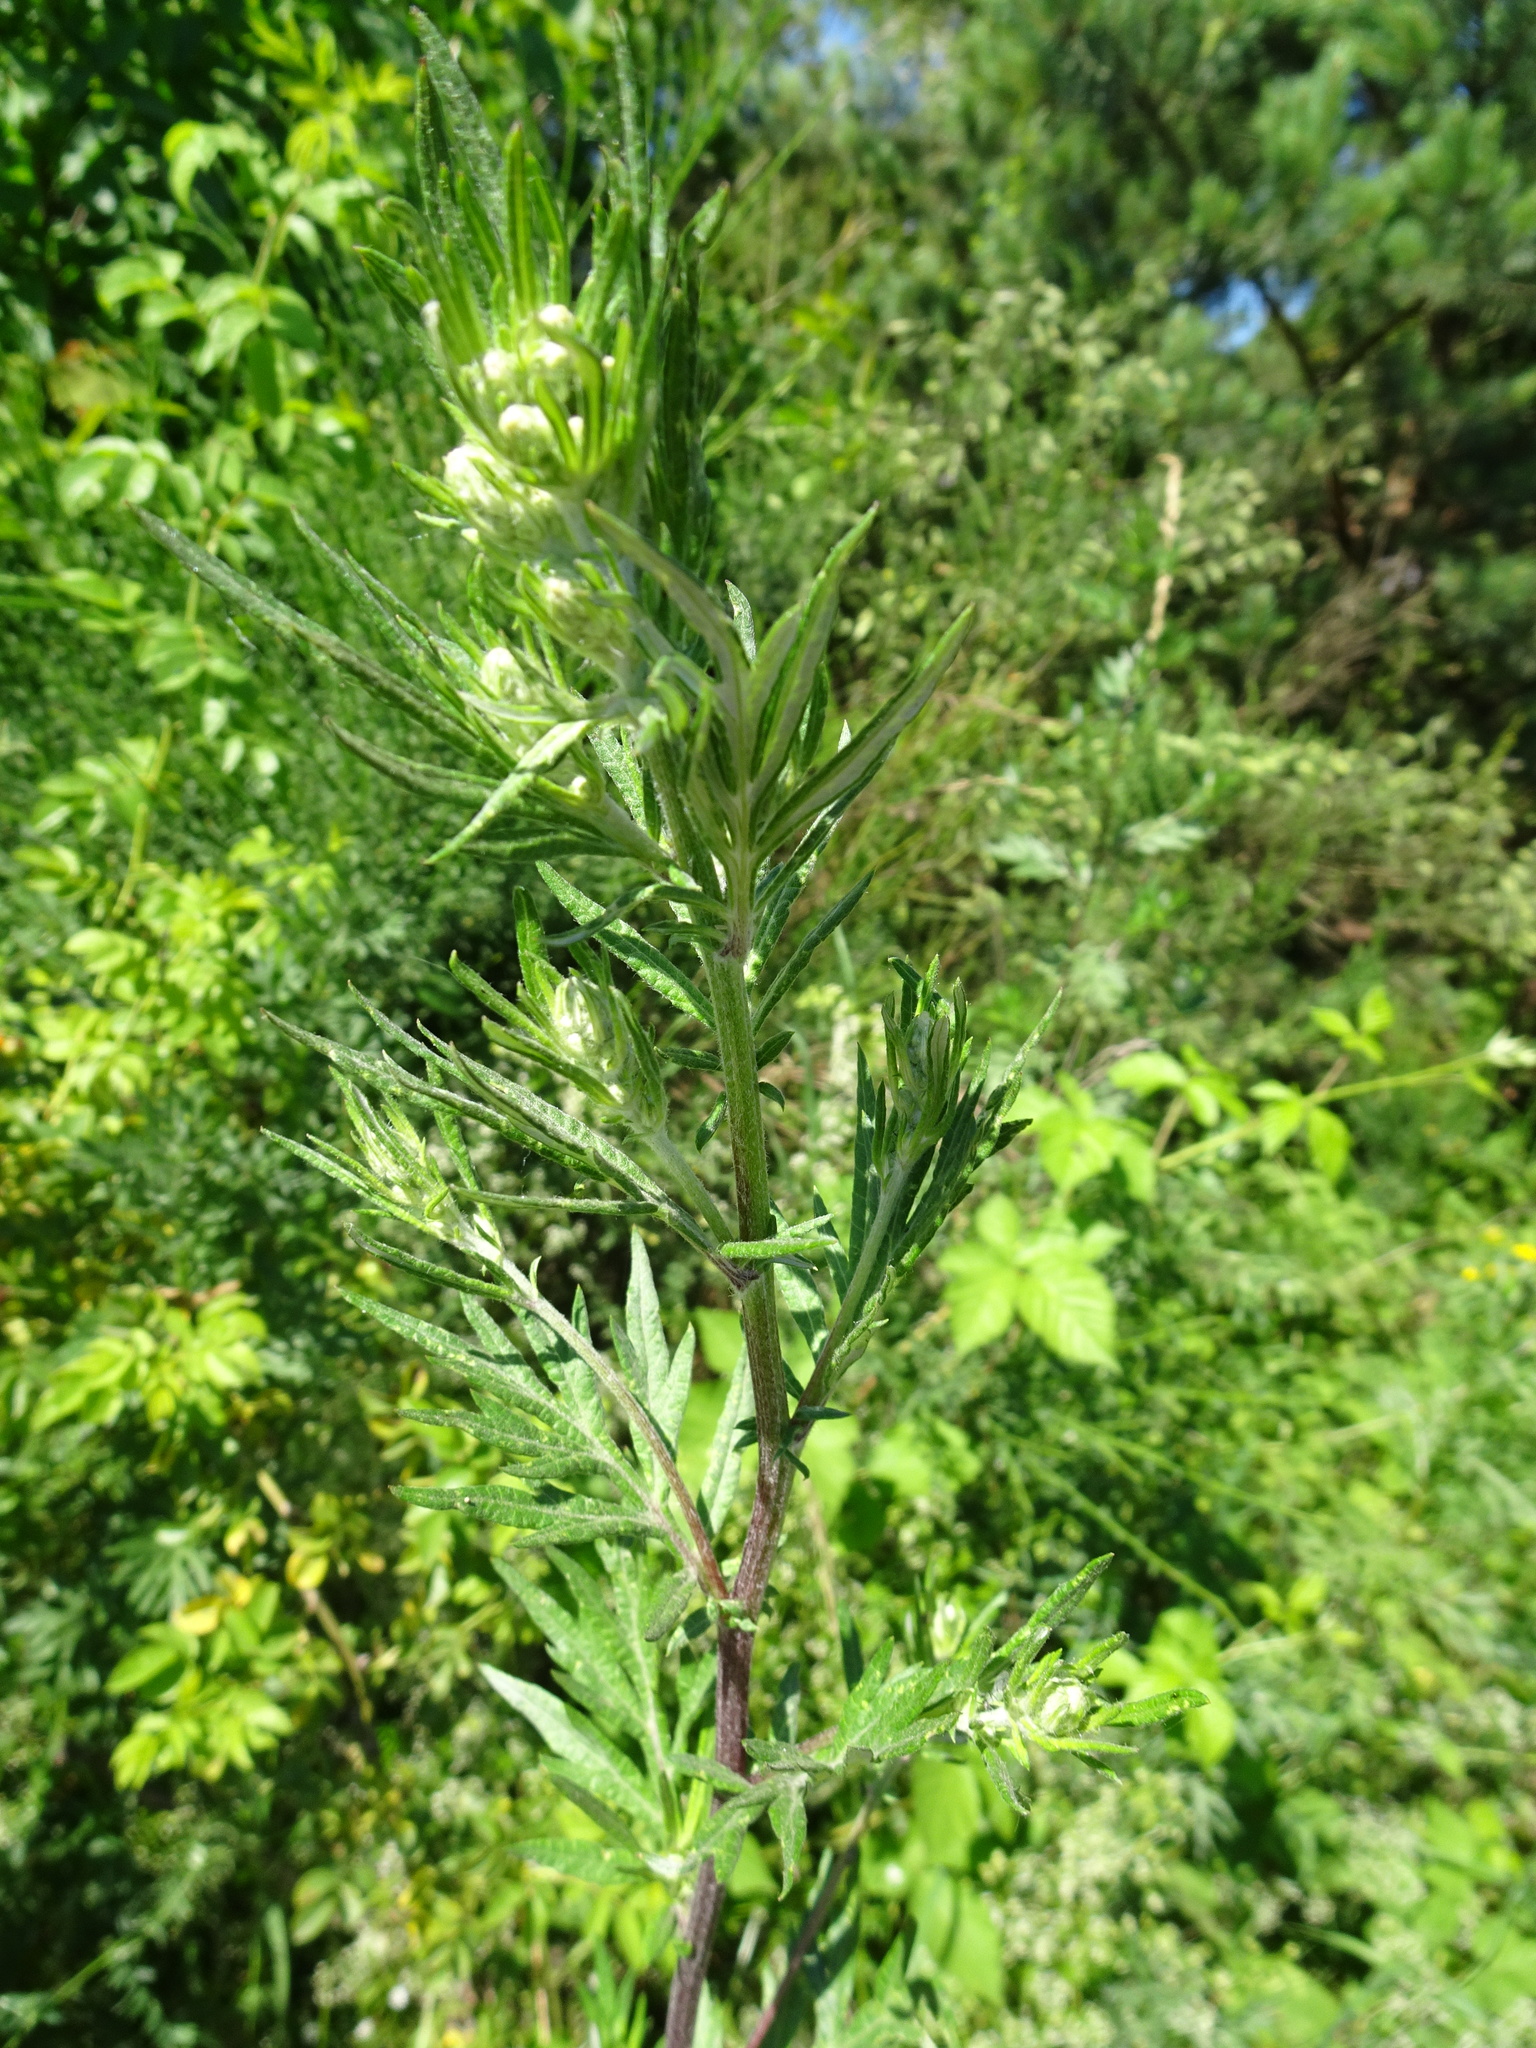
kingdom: Plantae
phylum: Tracheophyta
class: Magnoliopsida
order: Asterales
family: Asteraceae
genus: Artemisia
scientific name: Artemisia vulgaris
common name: Mugwort
